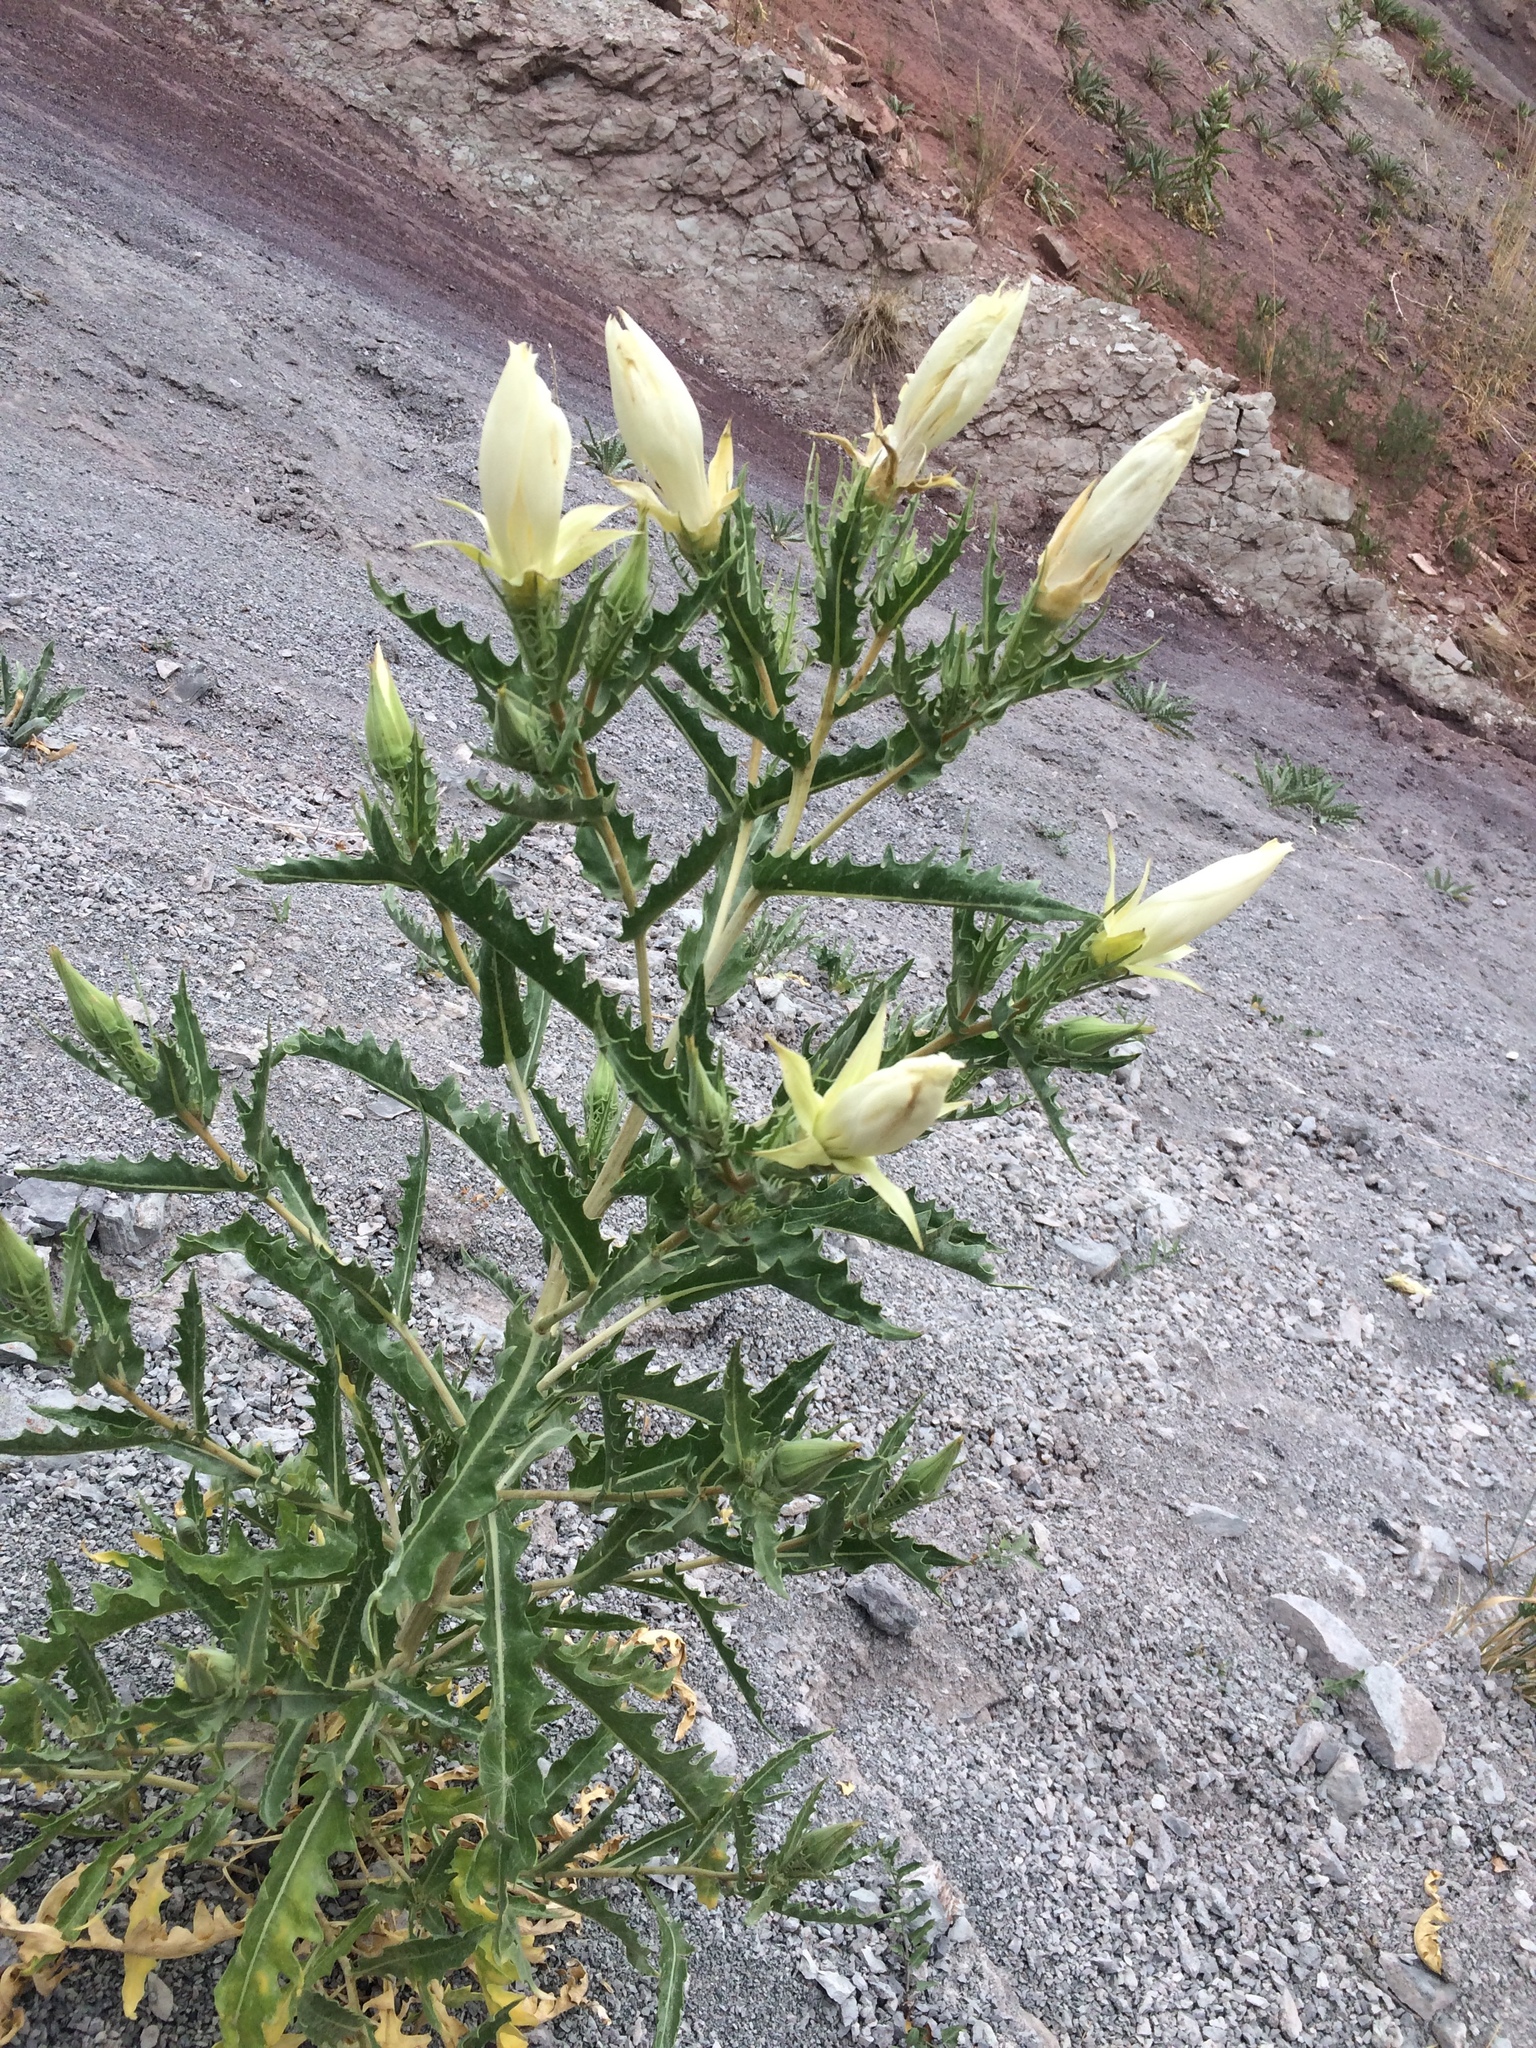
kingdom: Plantae
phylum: Tracheophyta
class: Magnoliopsida
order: Cornales
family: Loasaceae
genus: Mentzelia
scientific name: Mentzelia decapetala
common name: Gumbo-lily
